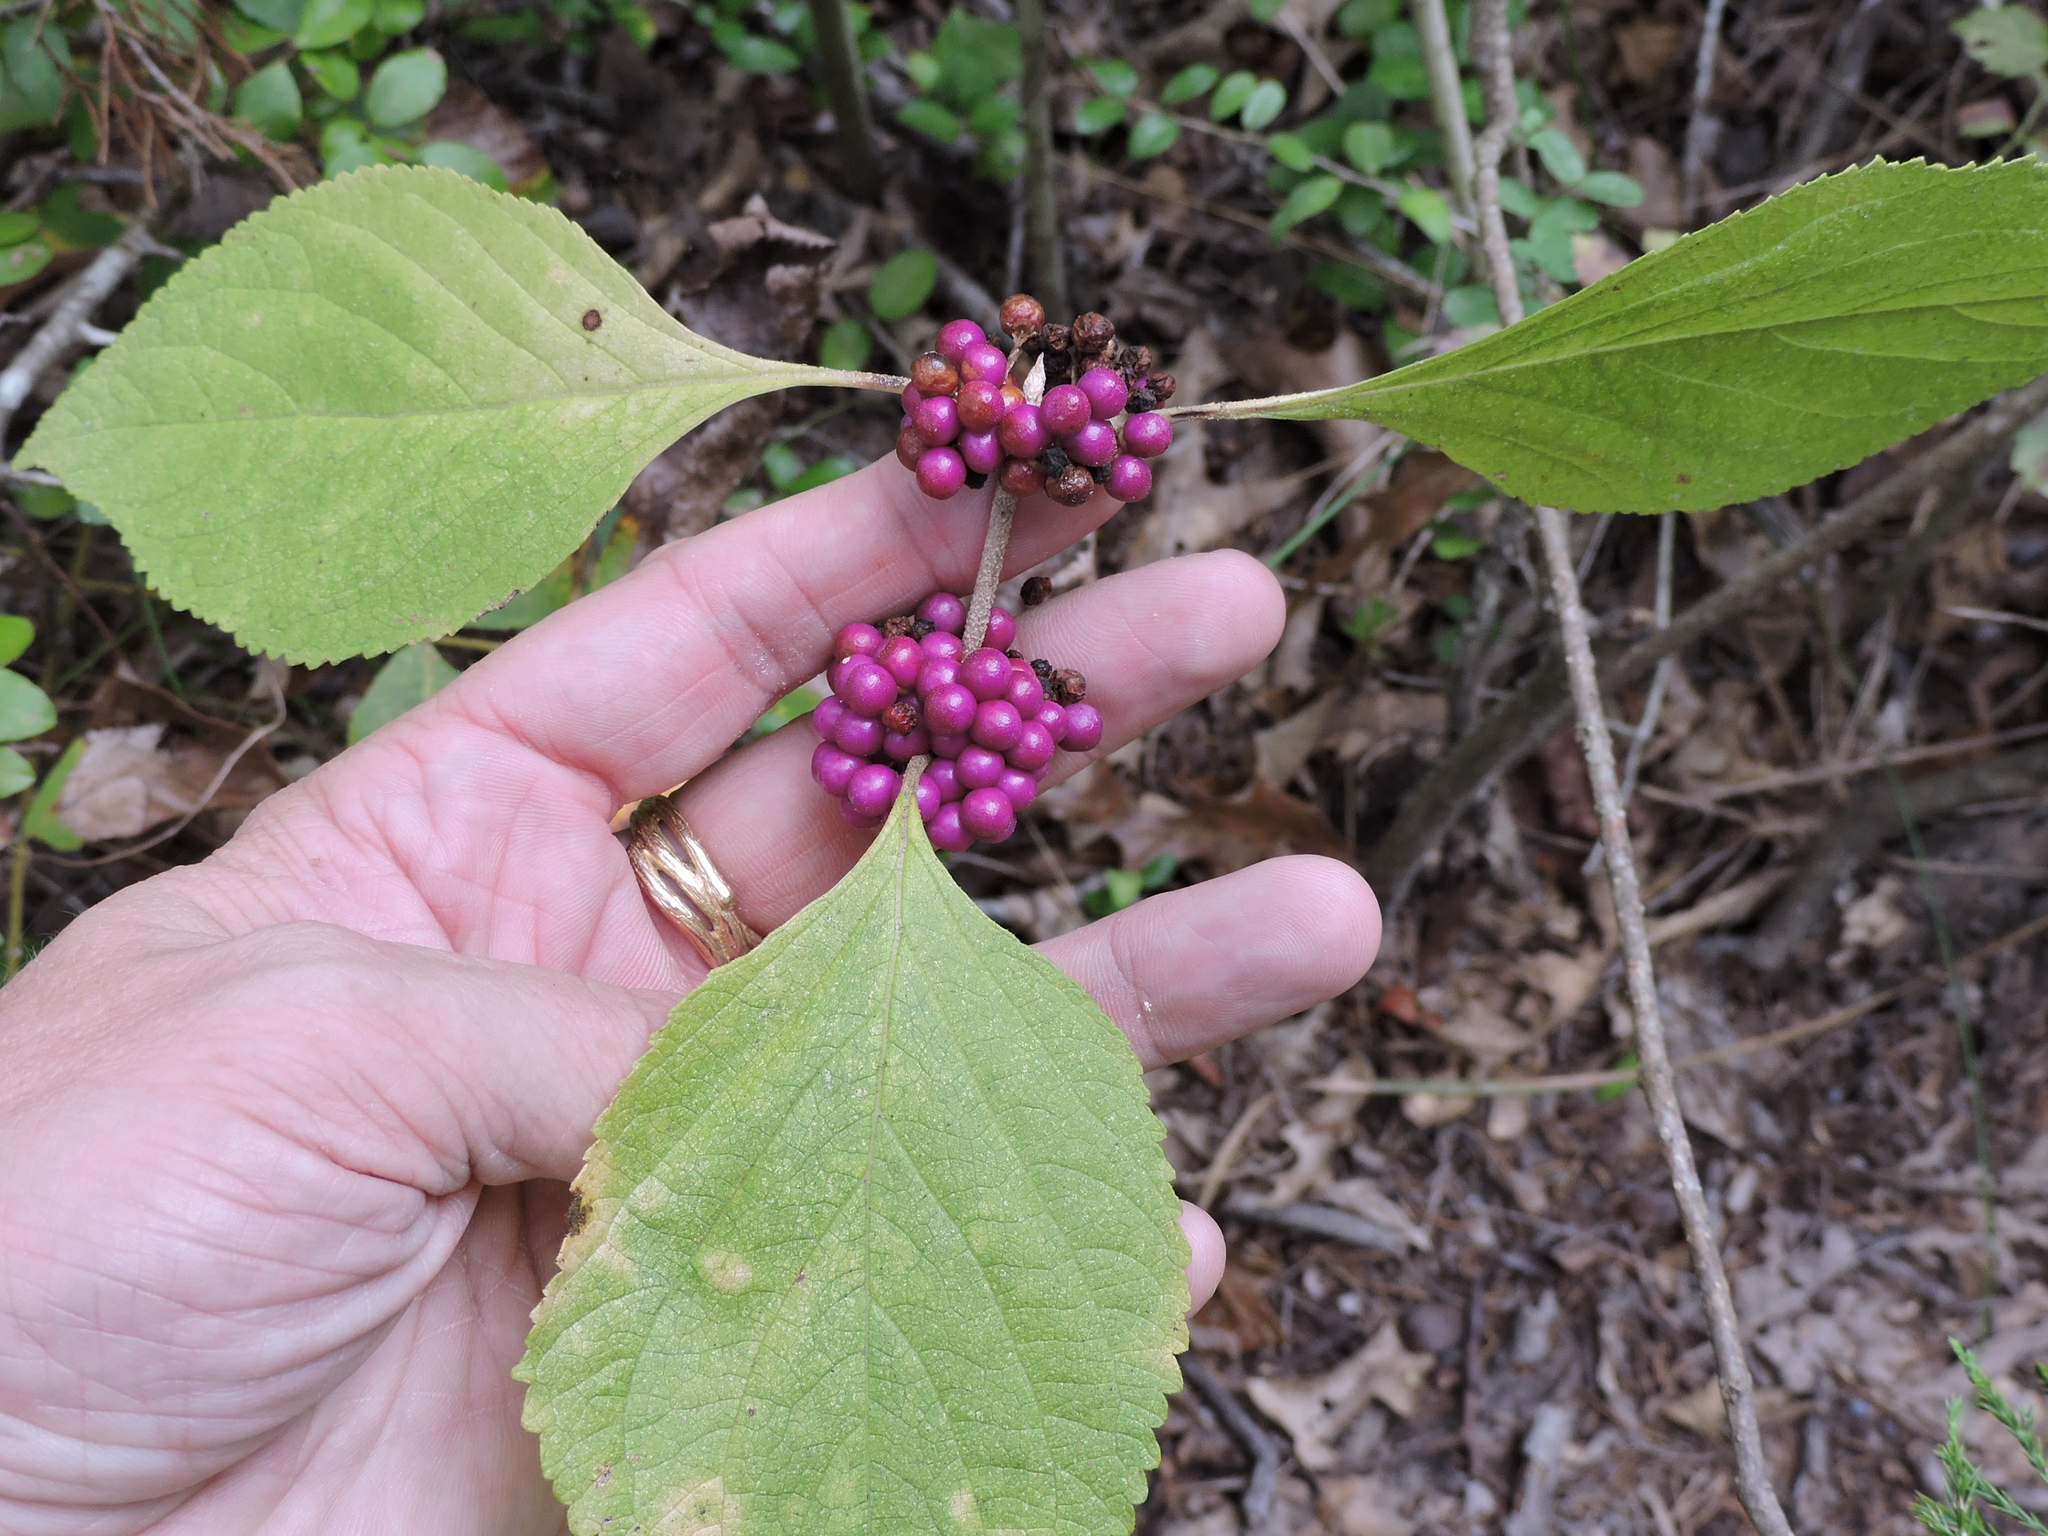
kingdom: Plantae
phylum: Tracheophyta
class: Magnoliopsida
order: Lamiales
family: Lamiaceae
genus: Callicarpa
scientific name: Callicarpa americana
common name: American beautyberry
